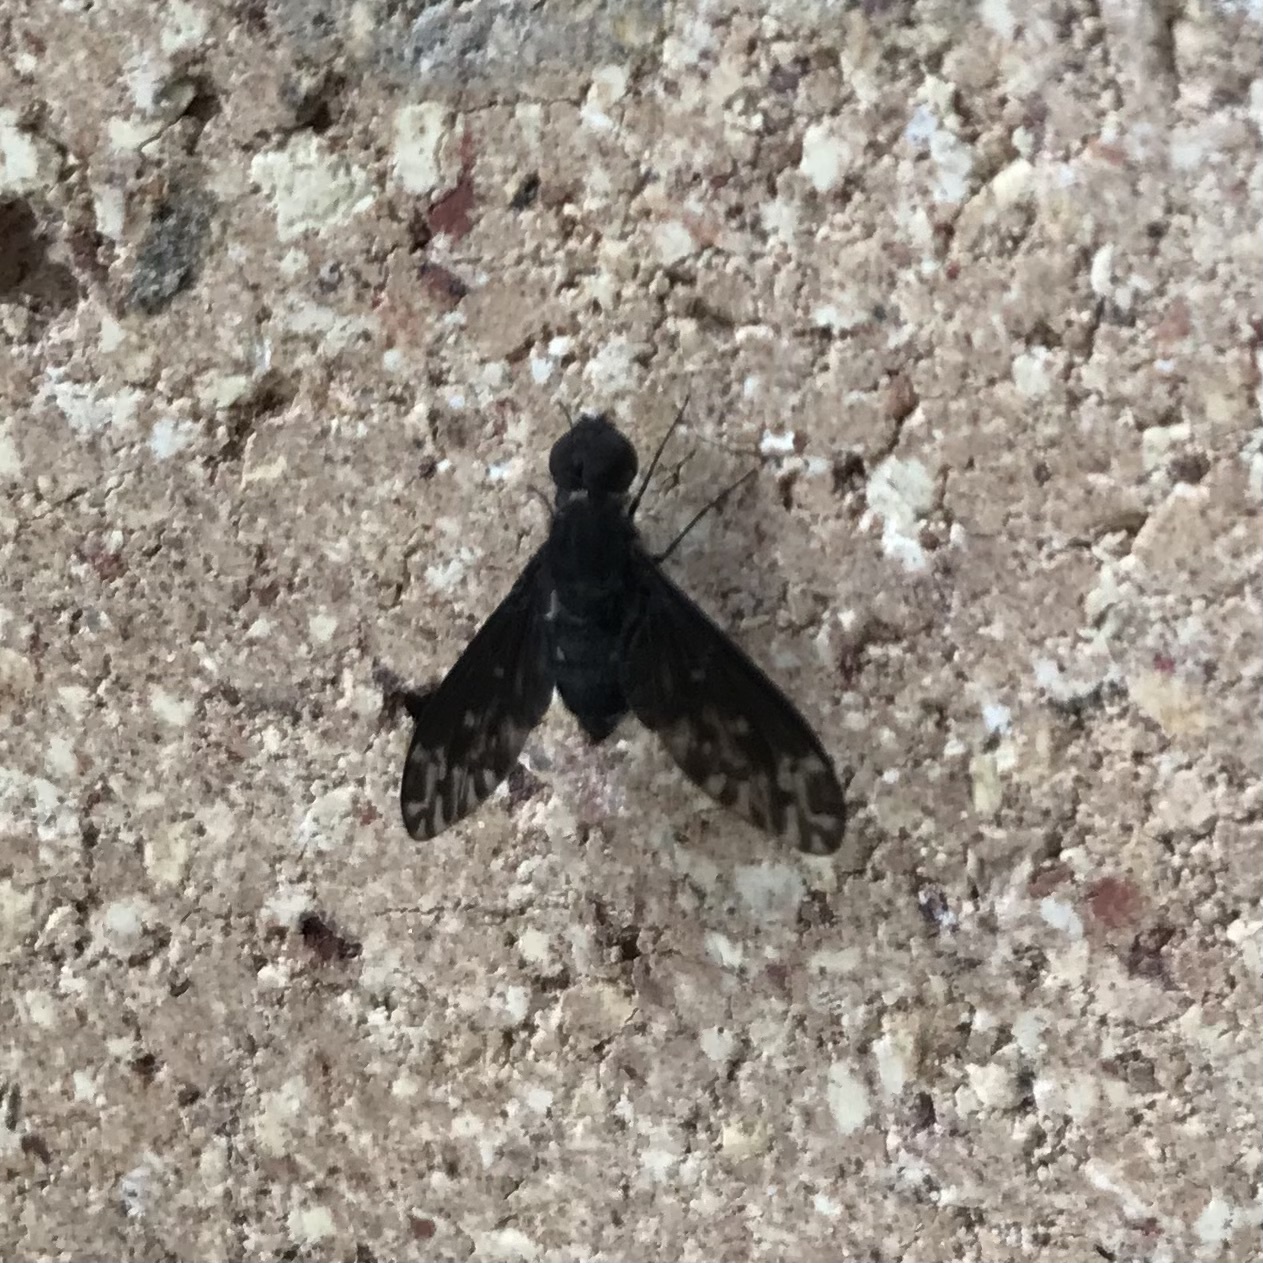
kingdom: Animalia
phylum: Arthropoda
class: Insecta
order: Diptera
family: Bombyliidae
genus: Anthrax
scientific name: Anthrax confluensis
